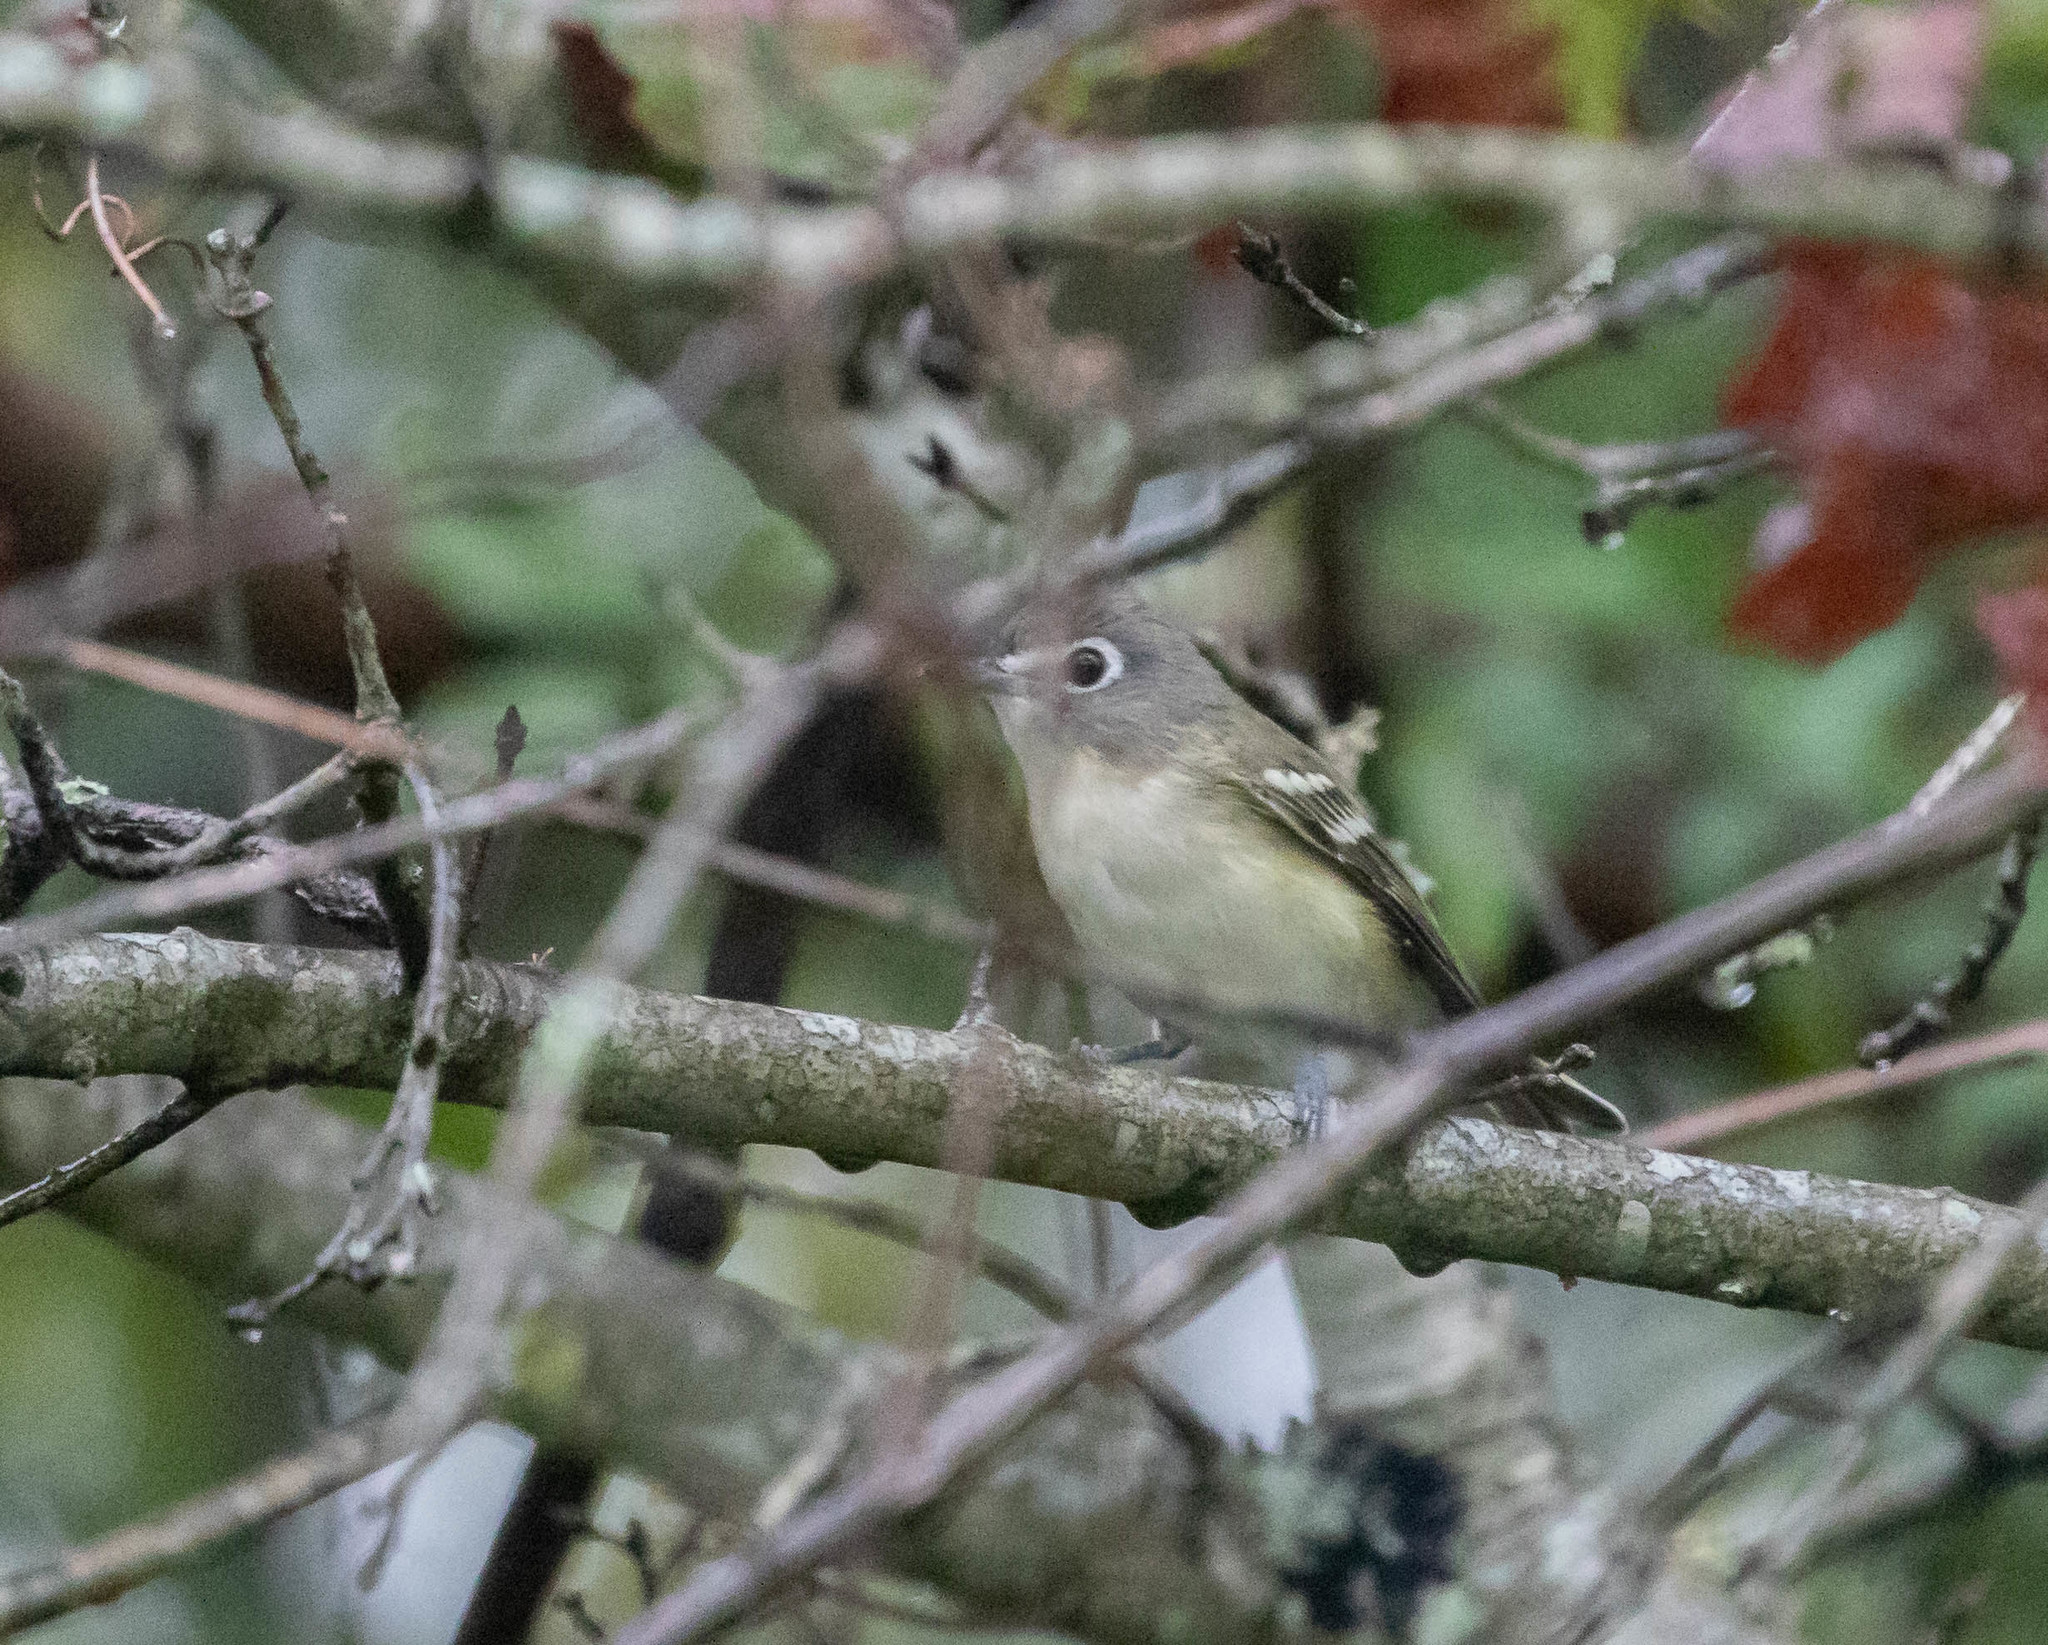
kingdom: Animalia
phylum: Chordata
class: Aves
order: Passeriformes
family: Vireonidae
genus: Vireo
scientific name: Vireo solitarius
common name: Blue-headed vireo
